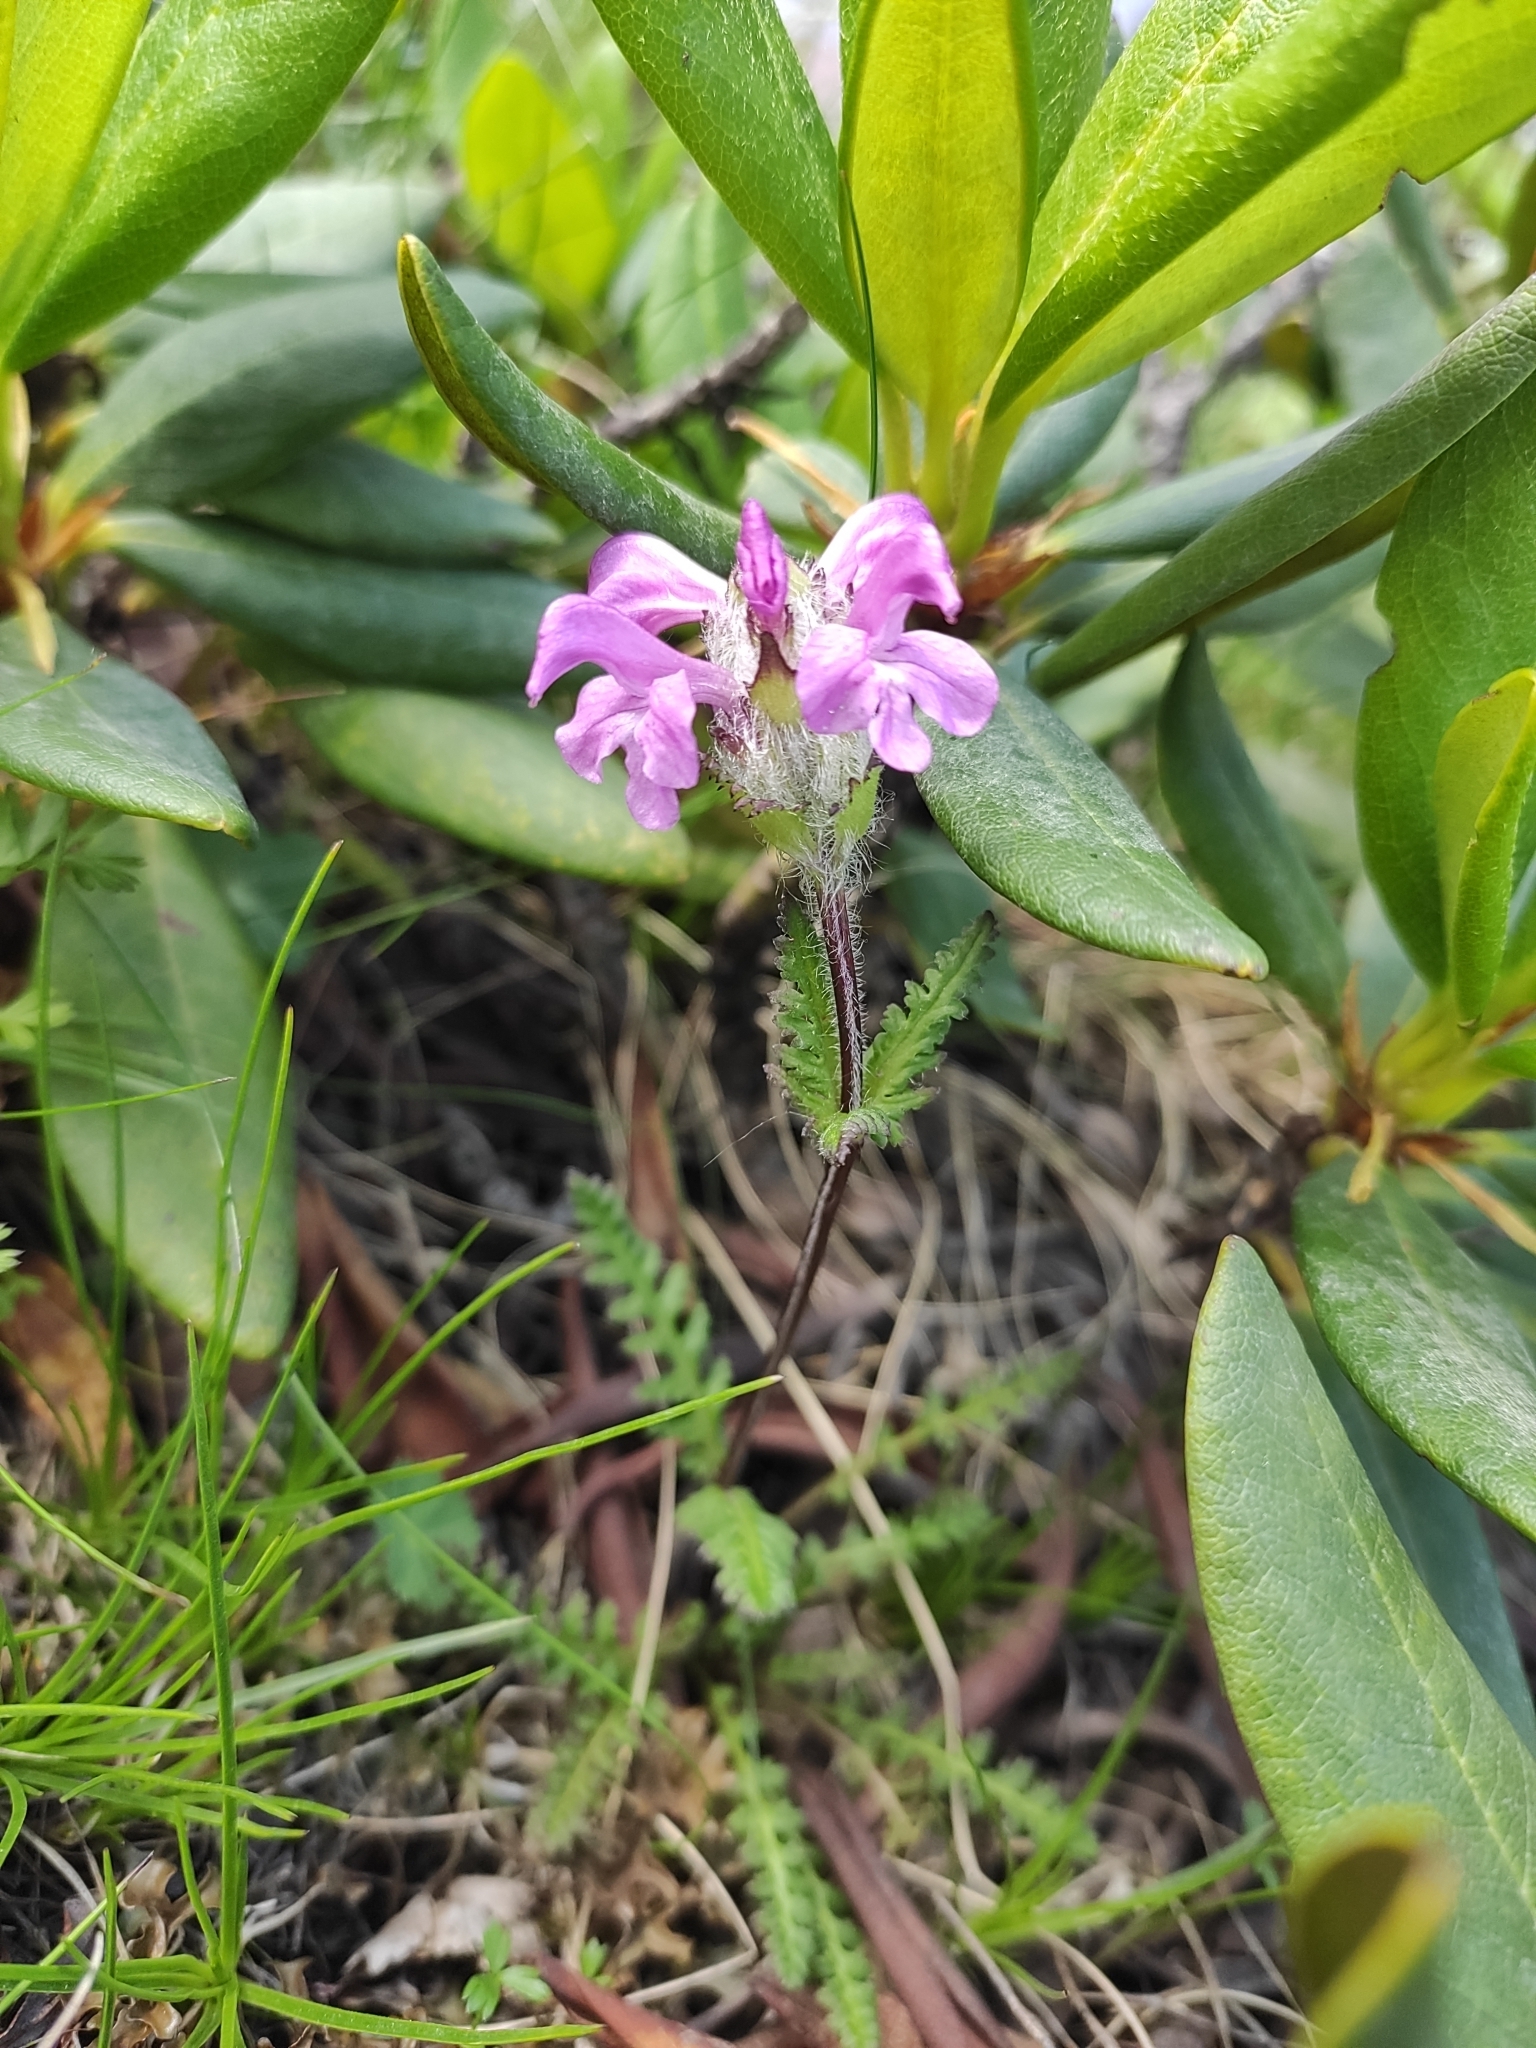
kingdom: Plantae
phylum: Tracheophyta
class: Magnoliopsida
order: Lamiales
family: Orobanchaceae
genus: Pedicularis
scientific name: Pedicularis crassirostris
